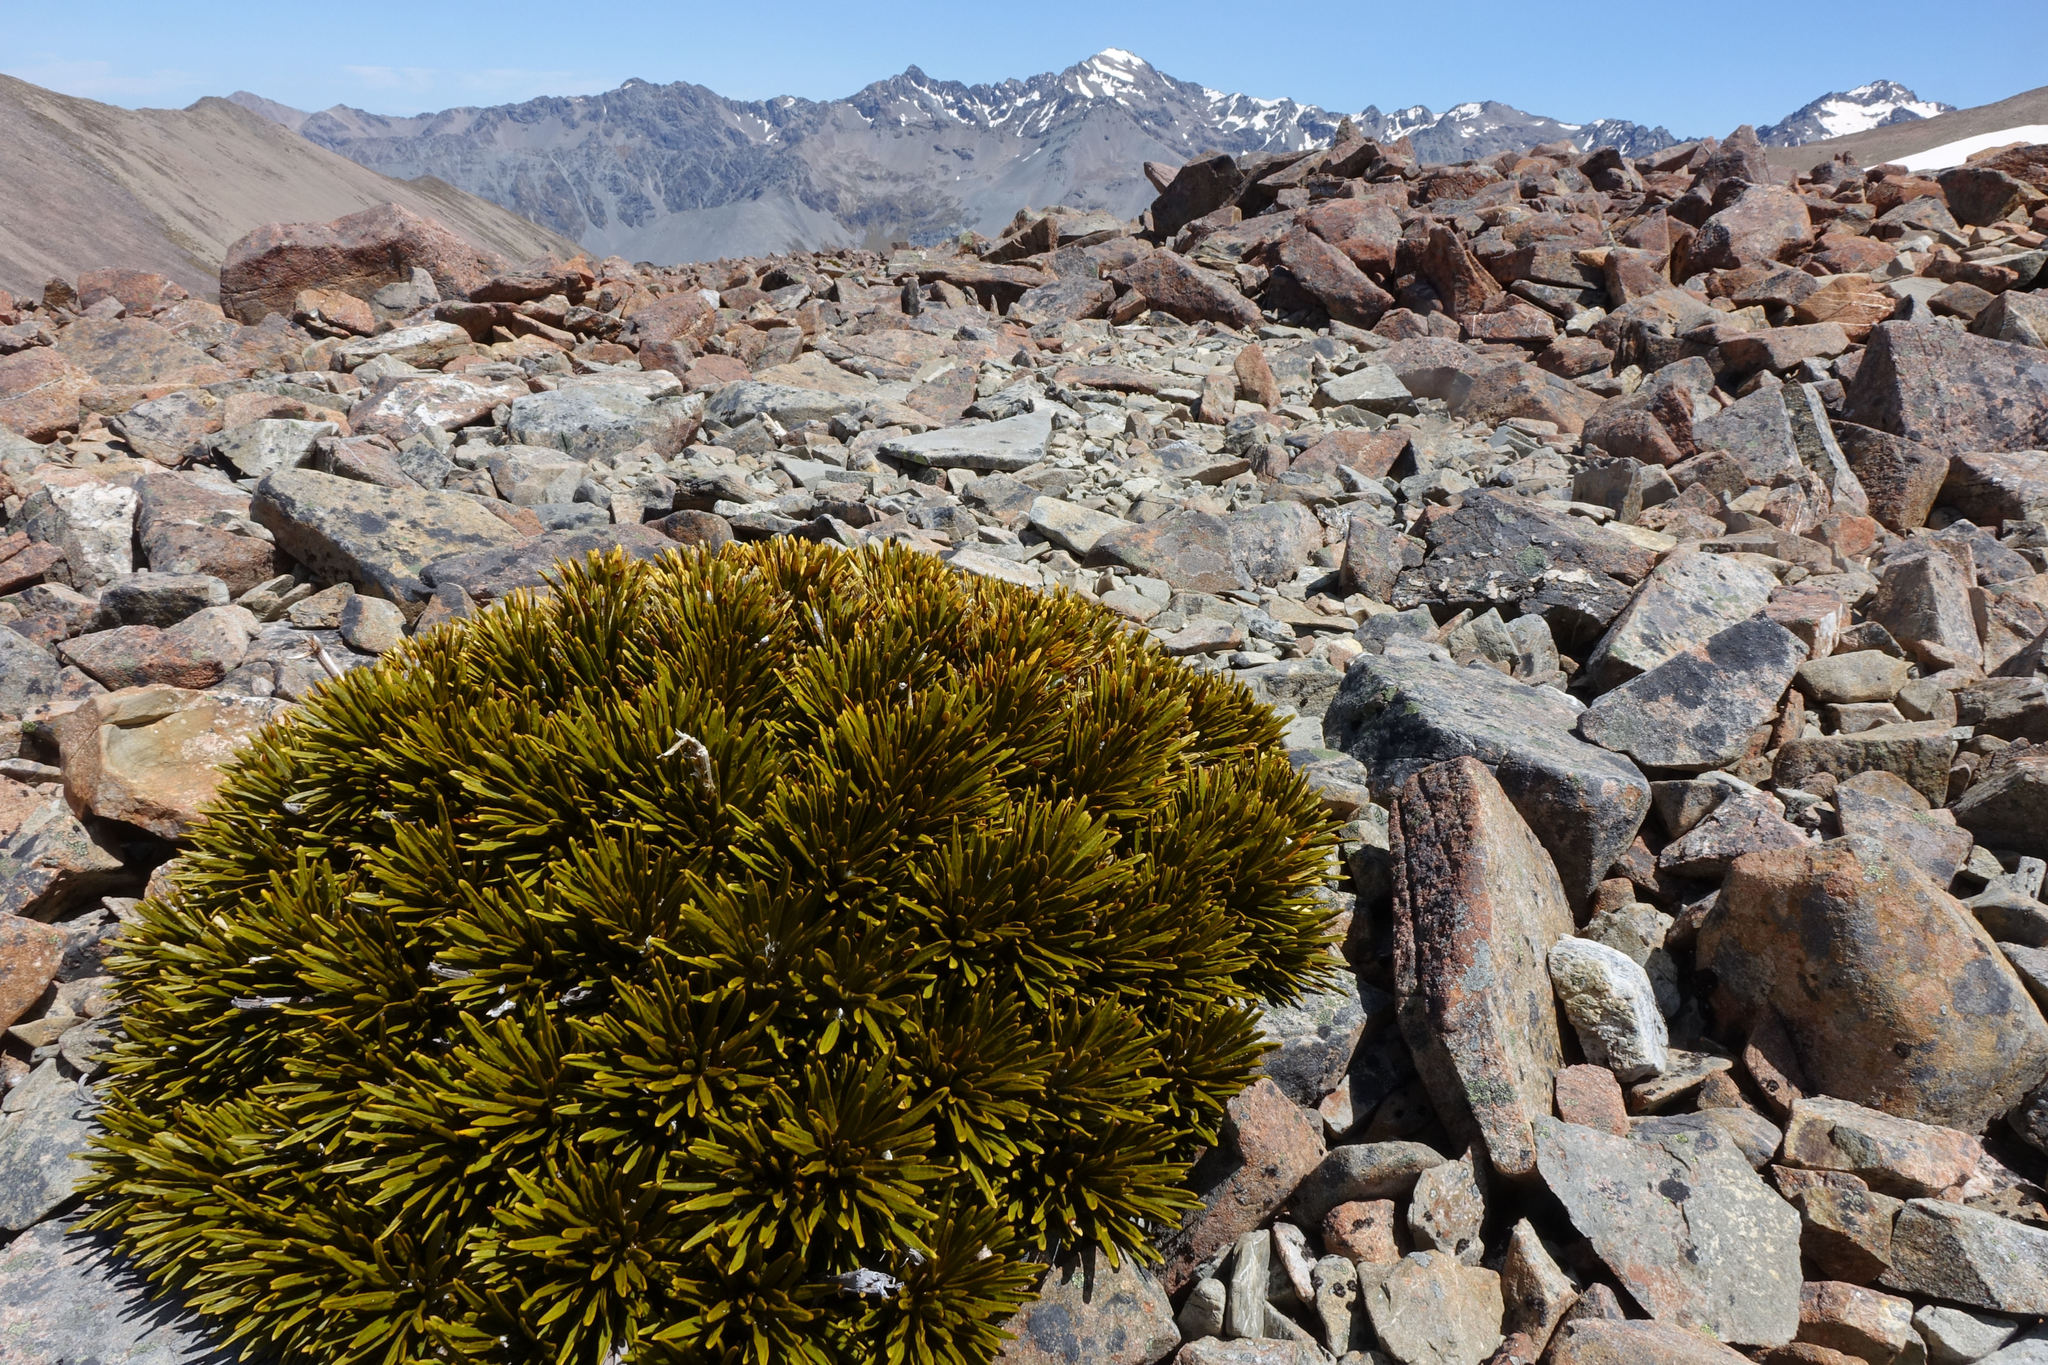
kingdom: Plantae
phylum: Tracheophyta
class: Magnoliopsida
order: Apiales
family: Apiaceae
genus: Aciphylla
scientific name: Aciphylla dobsonii
